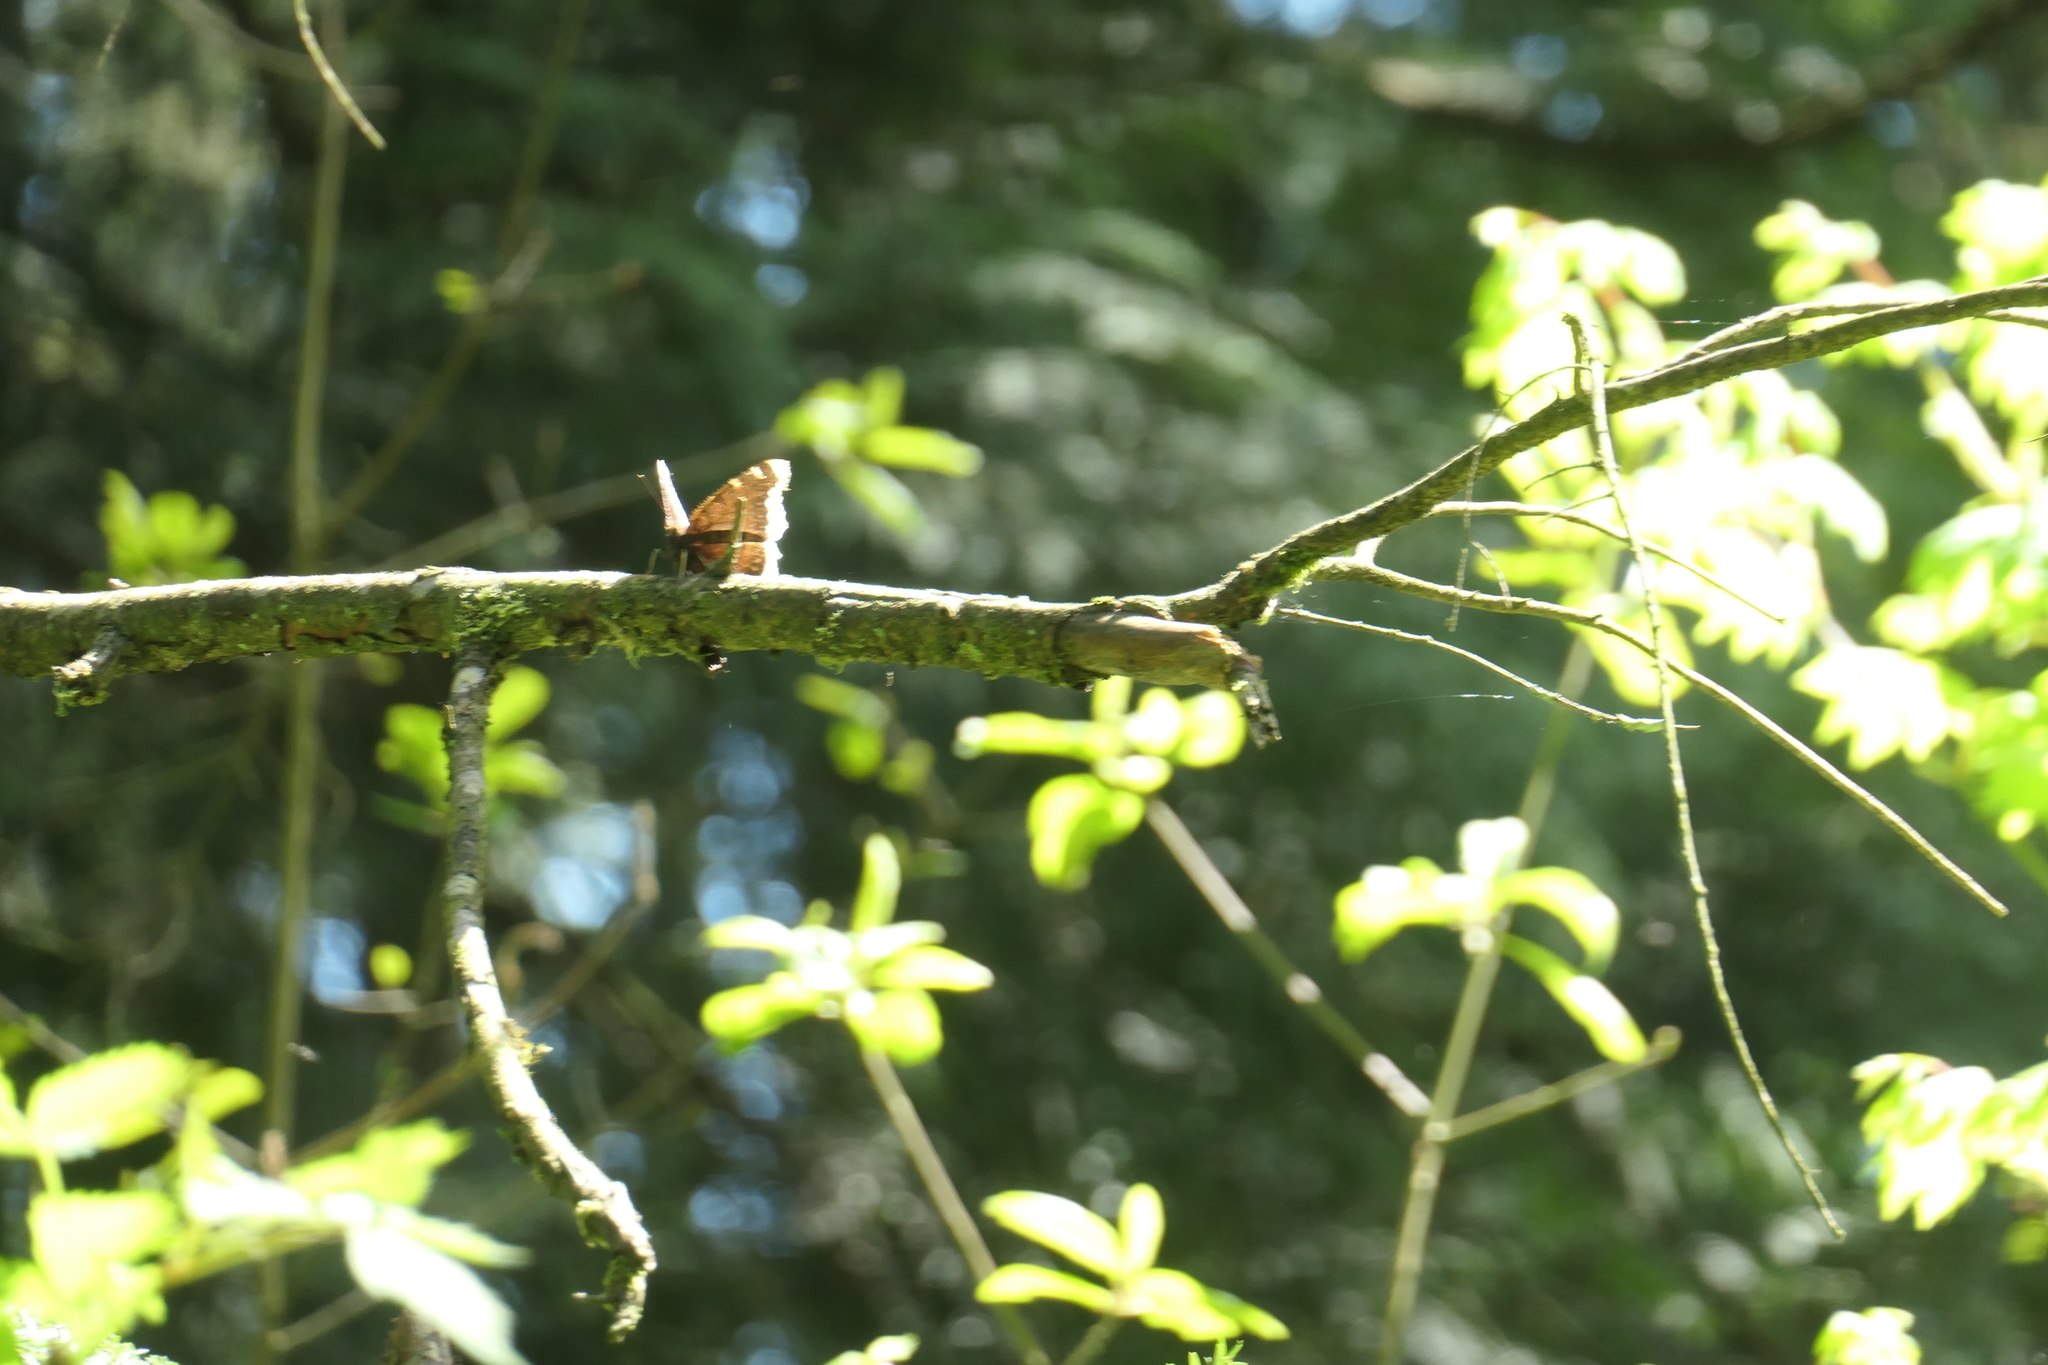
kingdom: Animalia
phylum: Arthropoda
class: Insecta
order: Lepidoptera
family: Nymphalidae
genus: Nymphalis
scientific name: Nymphalis antiopa
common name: Camberwell beauty
